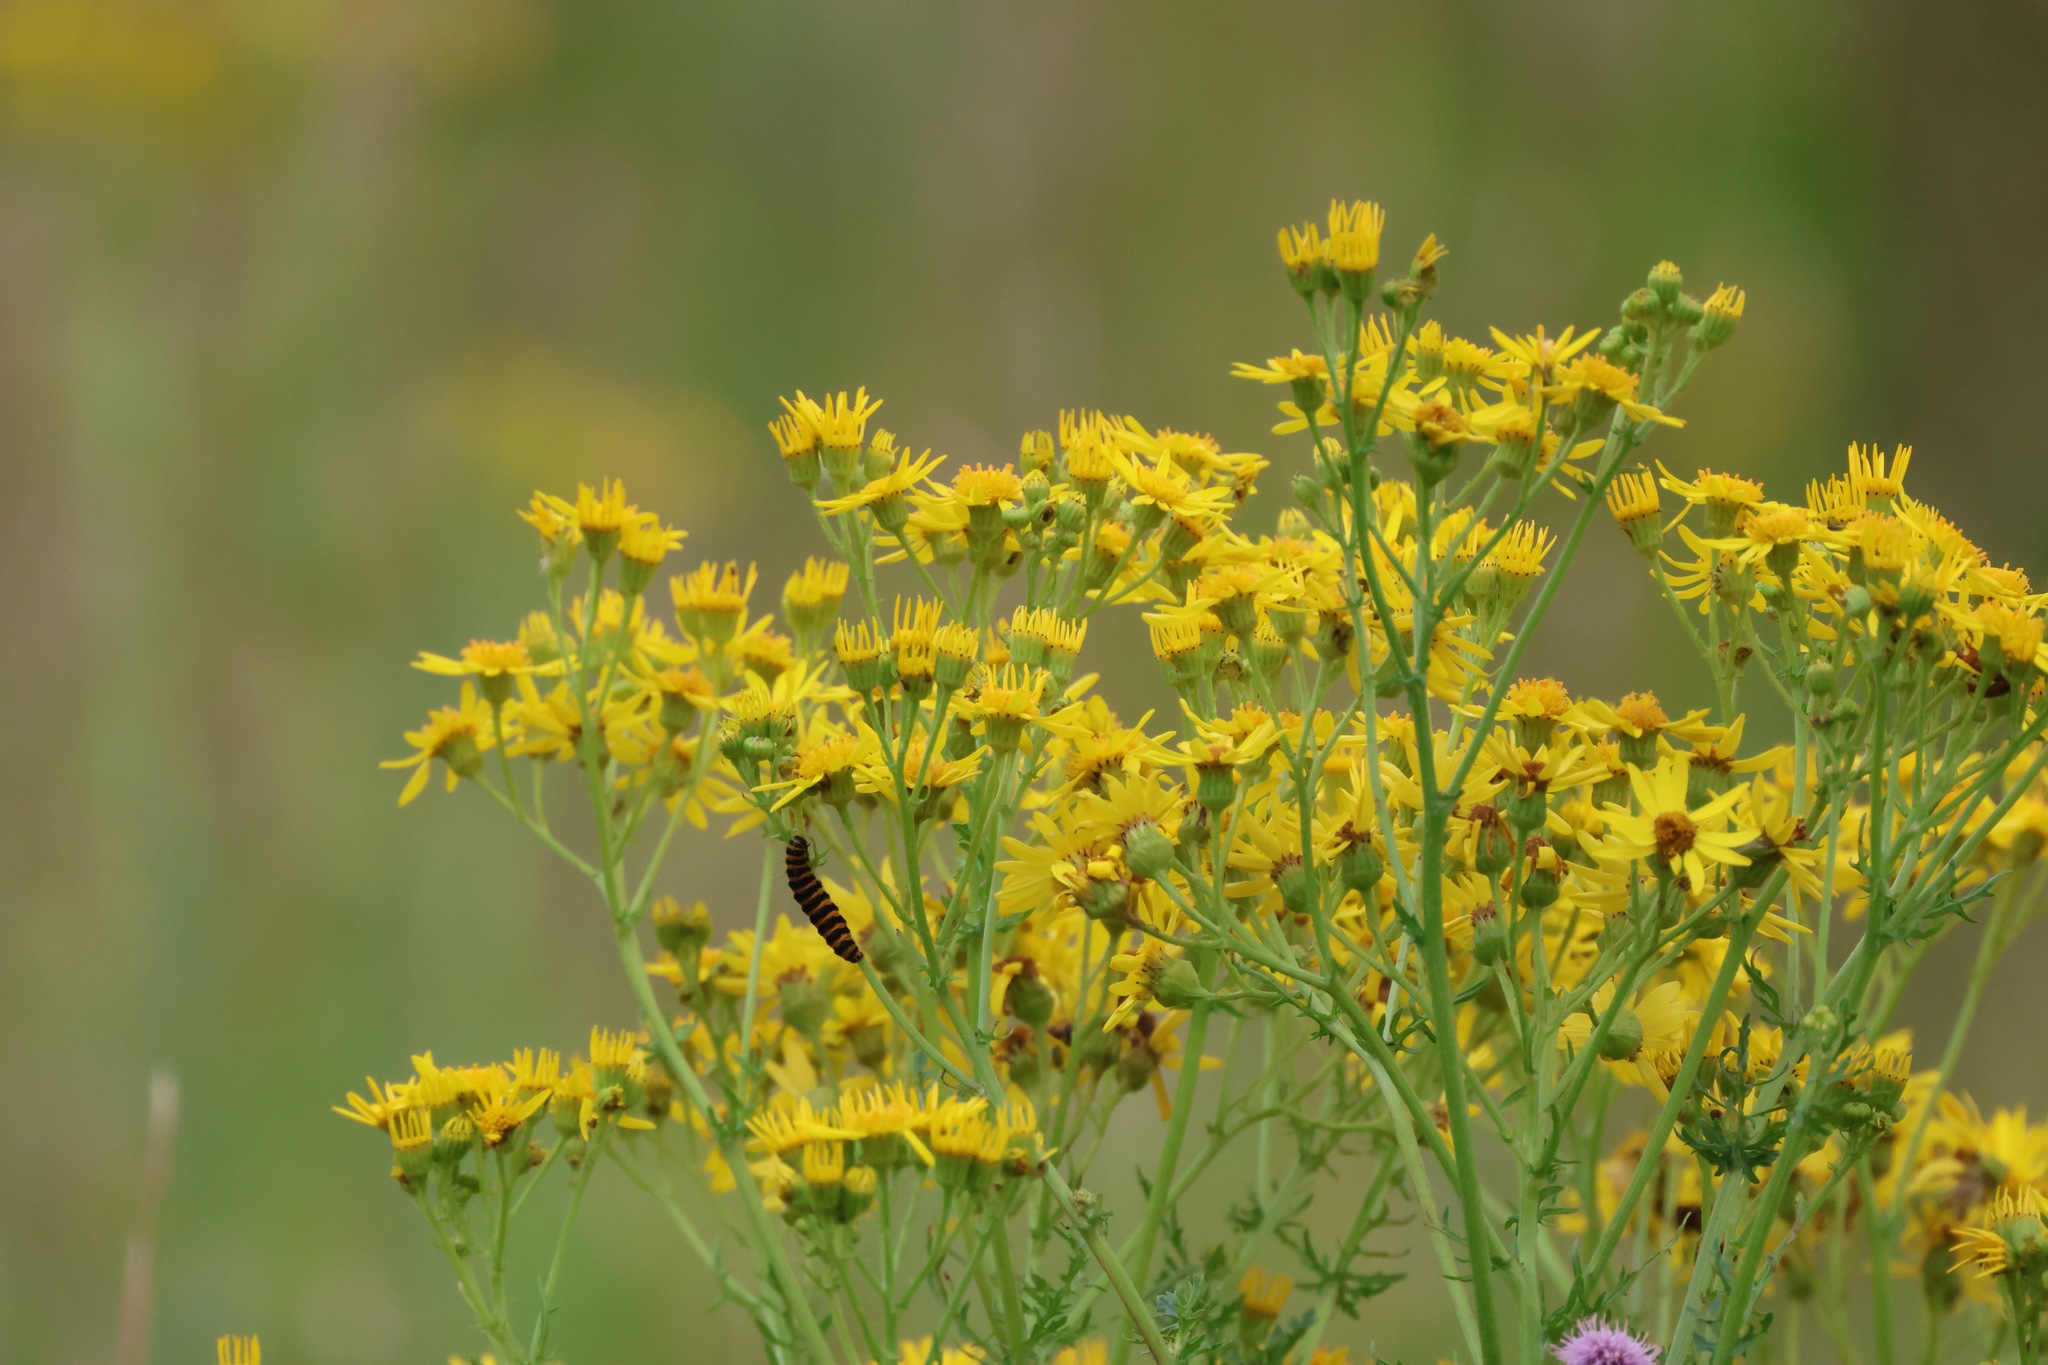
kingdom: Plantae
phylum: Tracheophyta
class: Magnoliopsida
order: Asterales
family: Asteraceae
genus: Jacobaea
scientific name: Jacobaea vulgaris
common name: Stinking willie
